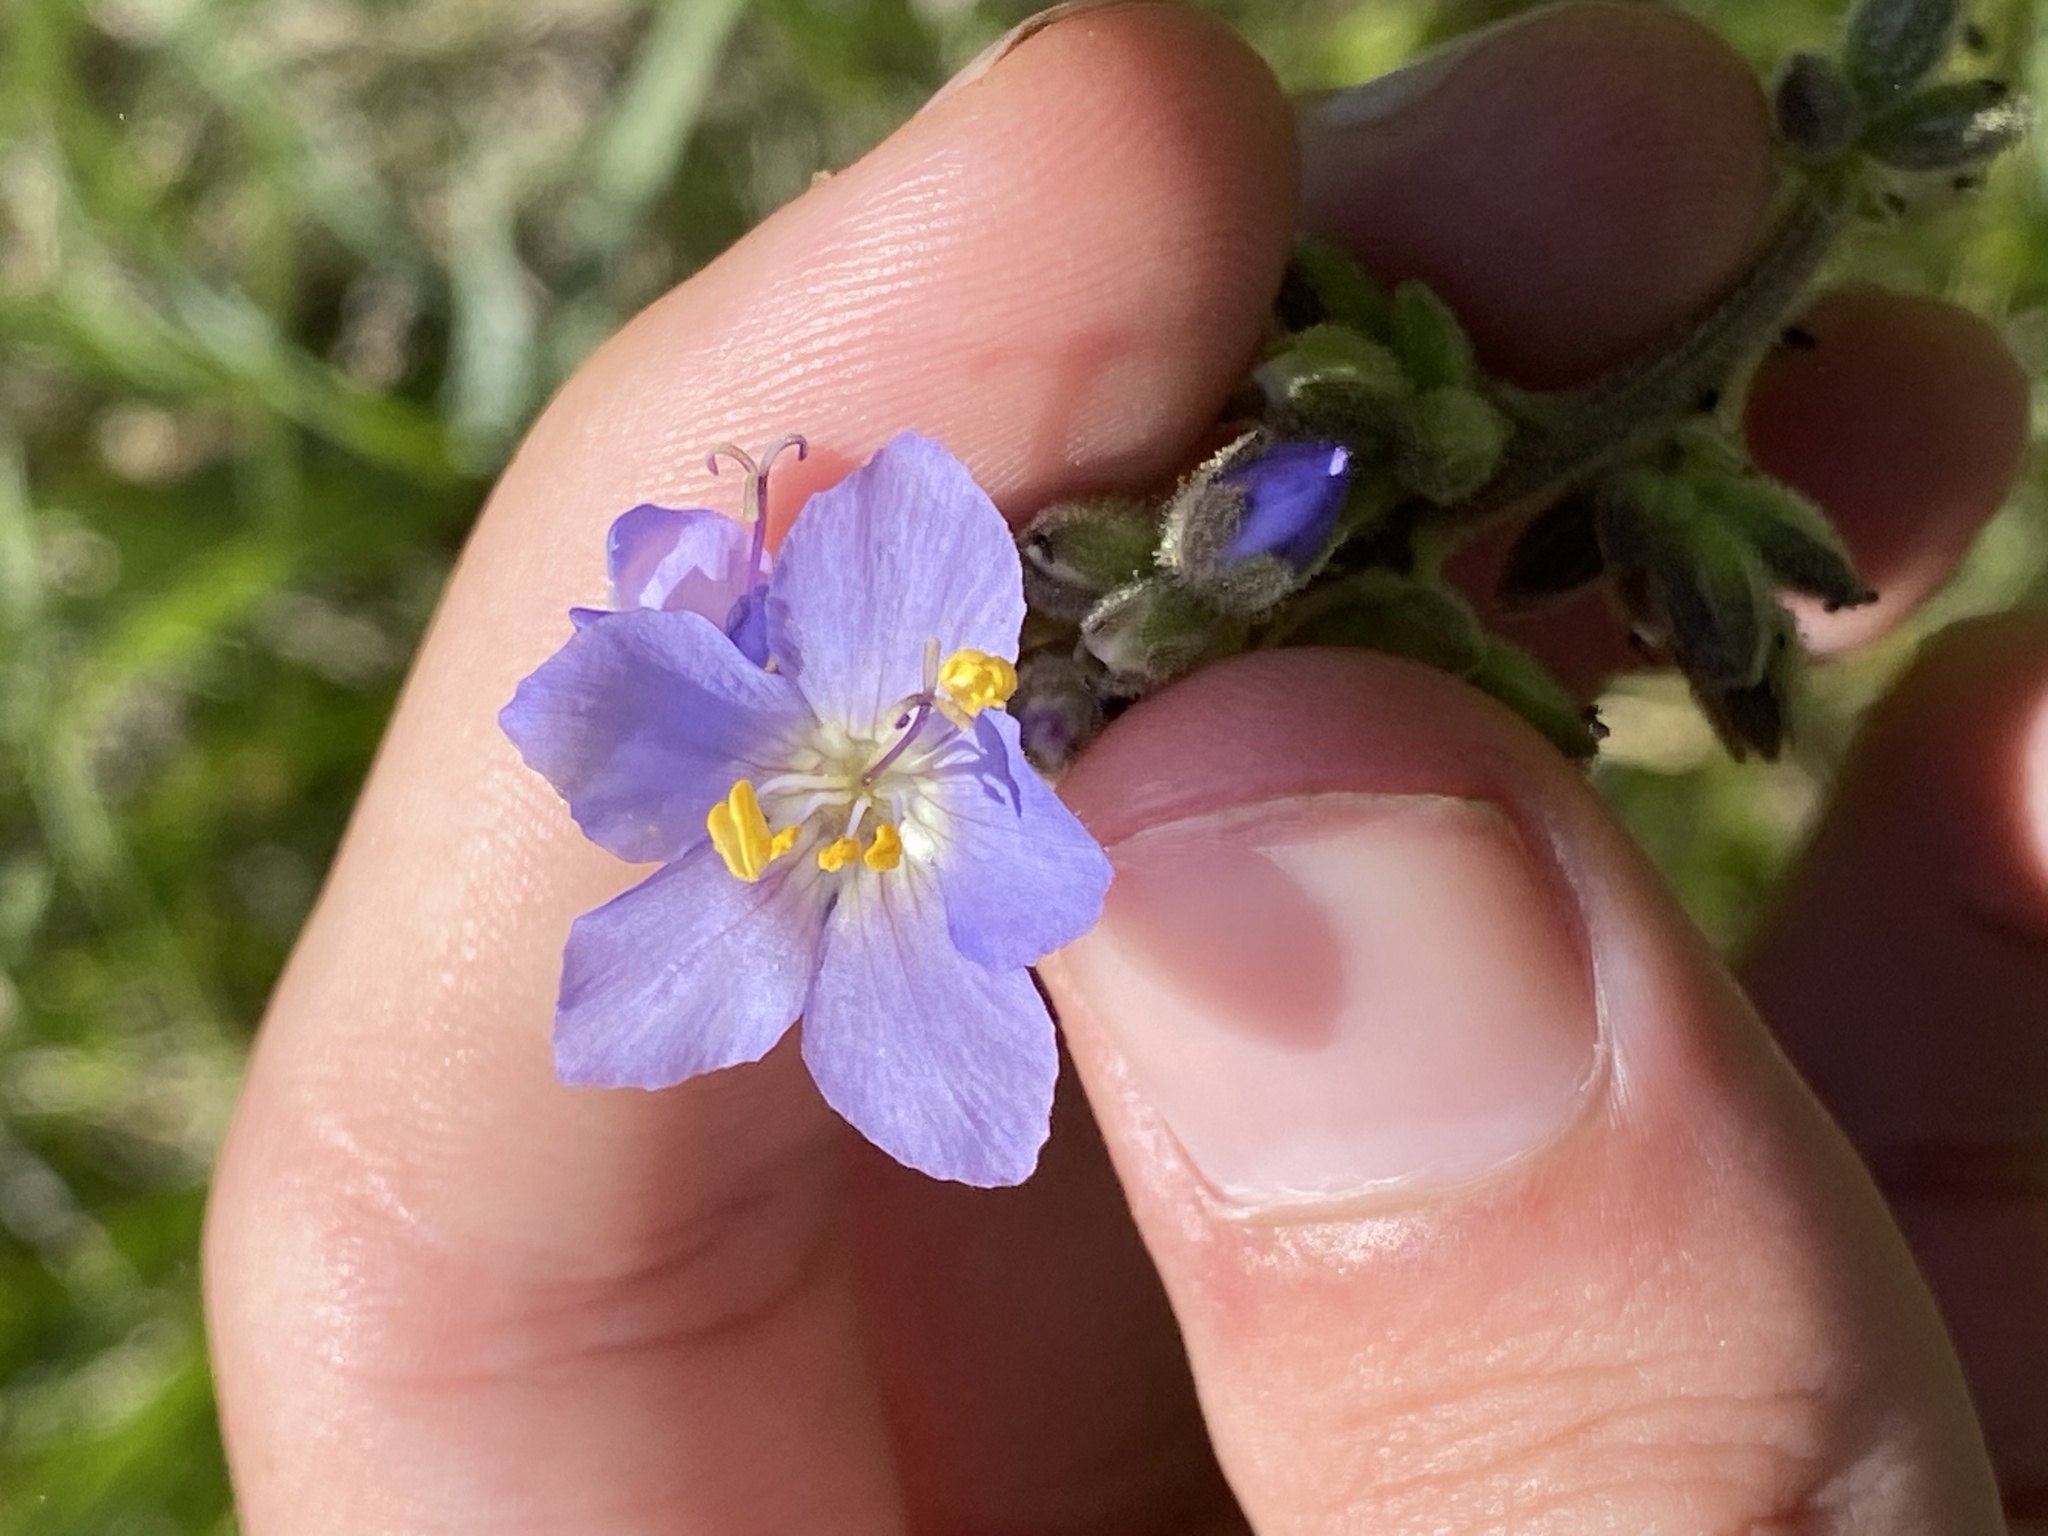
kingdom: Plantae
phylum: Tracheophyta
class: Magnoliopsida
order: Ericales
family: Polemoniaceae
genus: Polemonium
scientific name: Polemonium occidentale
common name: Western jacob's-ladder
